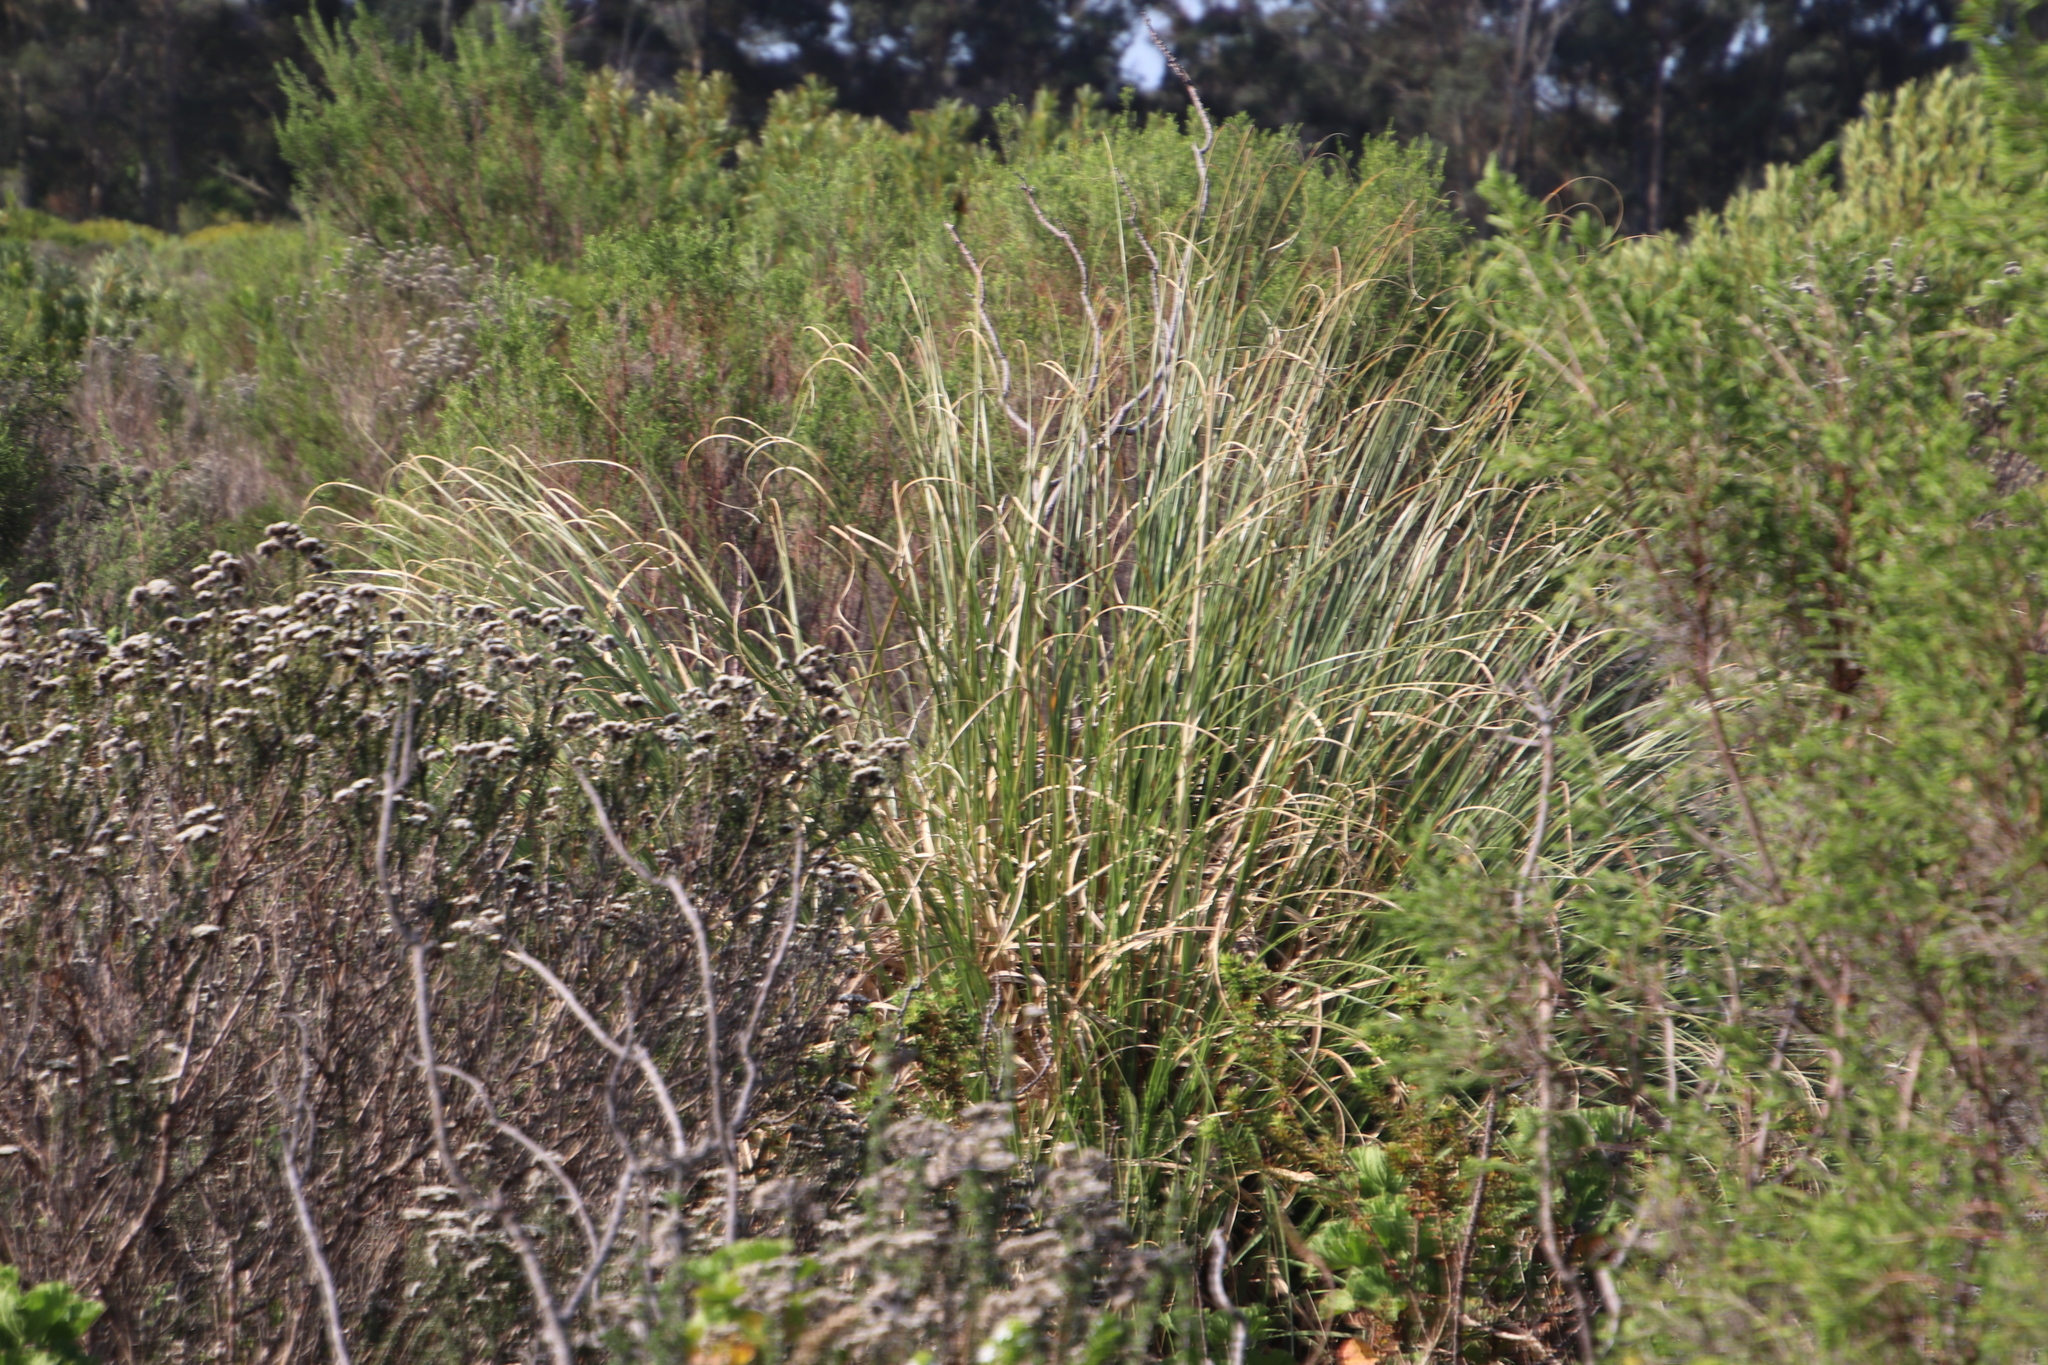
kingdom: Plantae
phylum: Tracheophyta
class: Liliopsida
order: Poales
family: Poaceae
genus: Cortaderia
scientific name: Cortaderia selloana
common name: Uruguayan pampas grass
